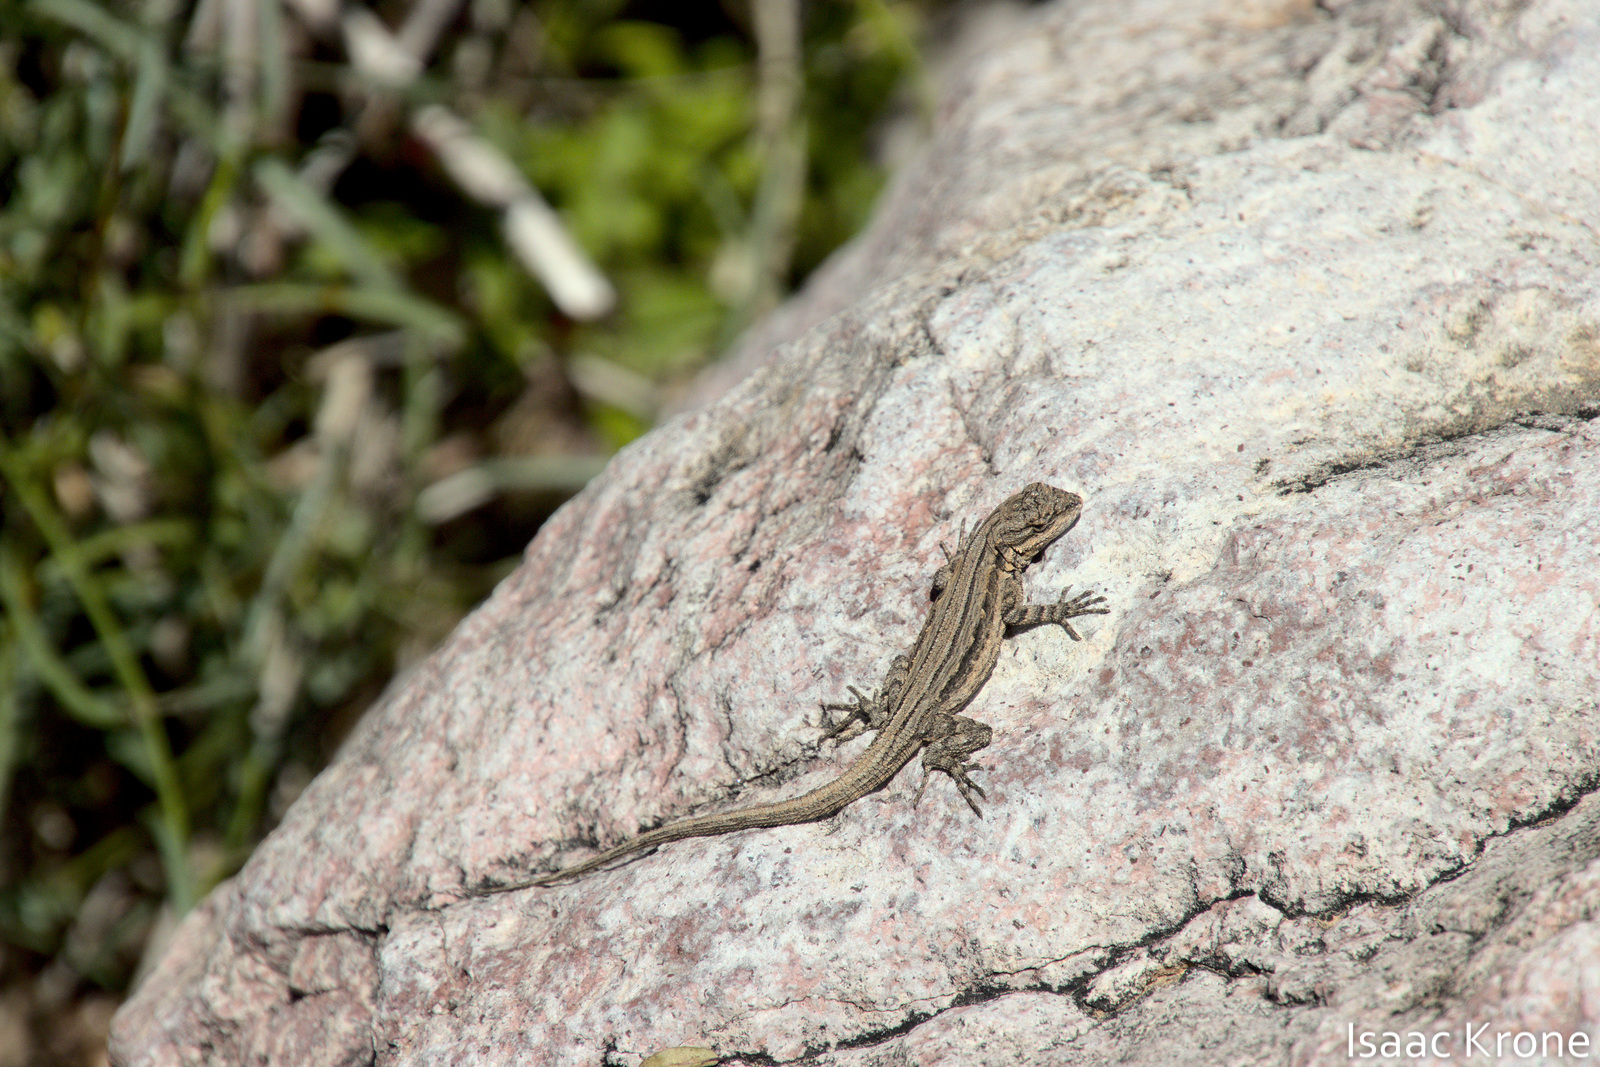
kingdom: Animalia
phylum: Chordata
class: Squamata
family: Phrynosomatidae
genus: Urosaurus
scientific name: Urosaurus ornatus
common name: Ornate tree lizard
